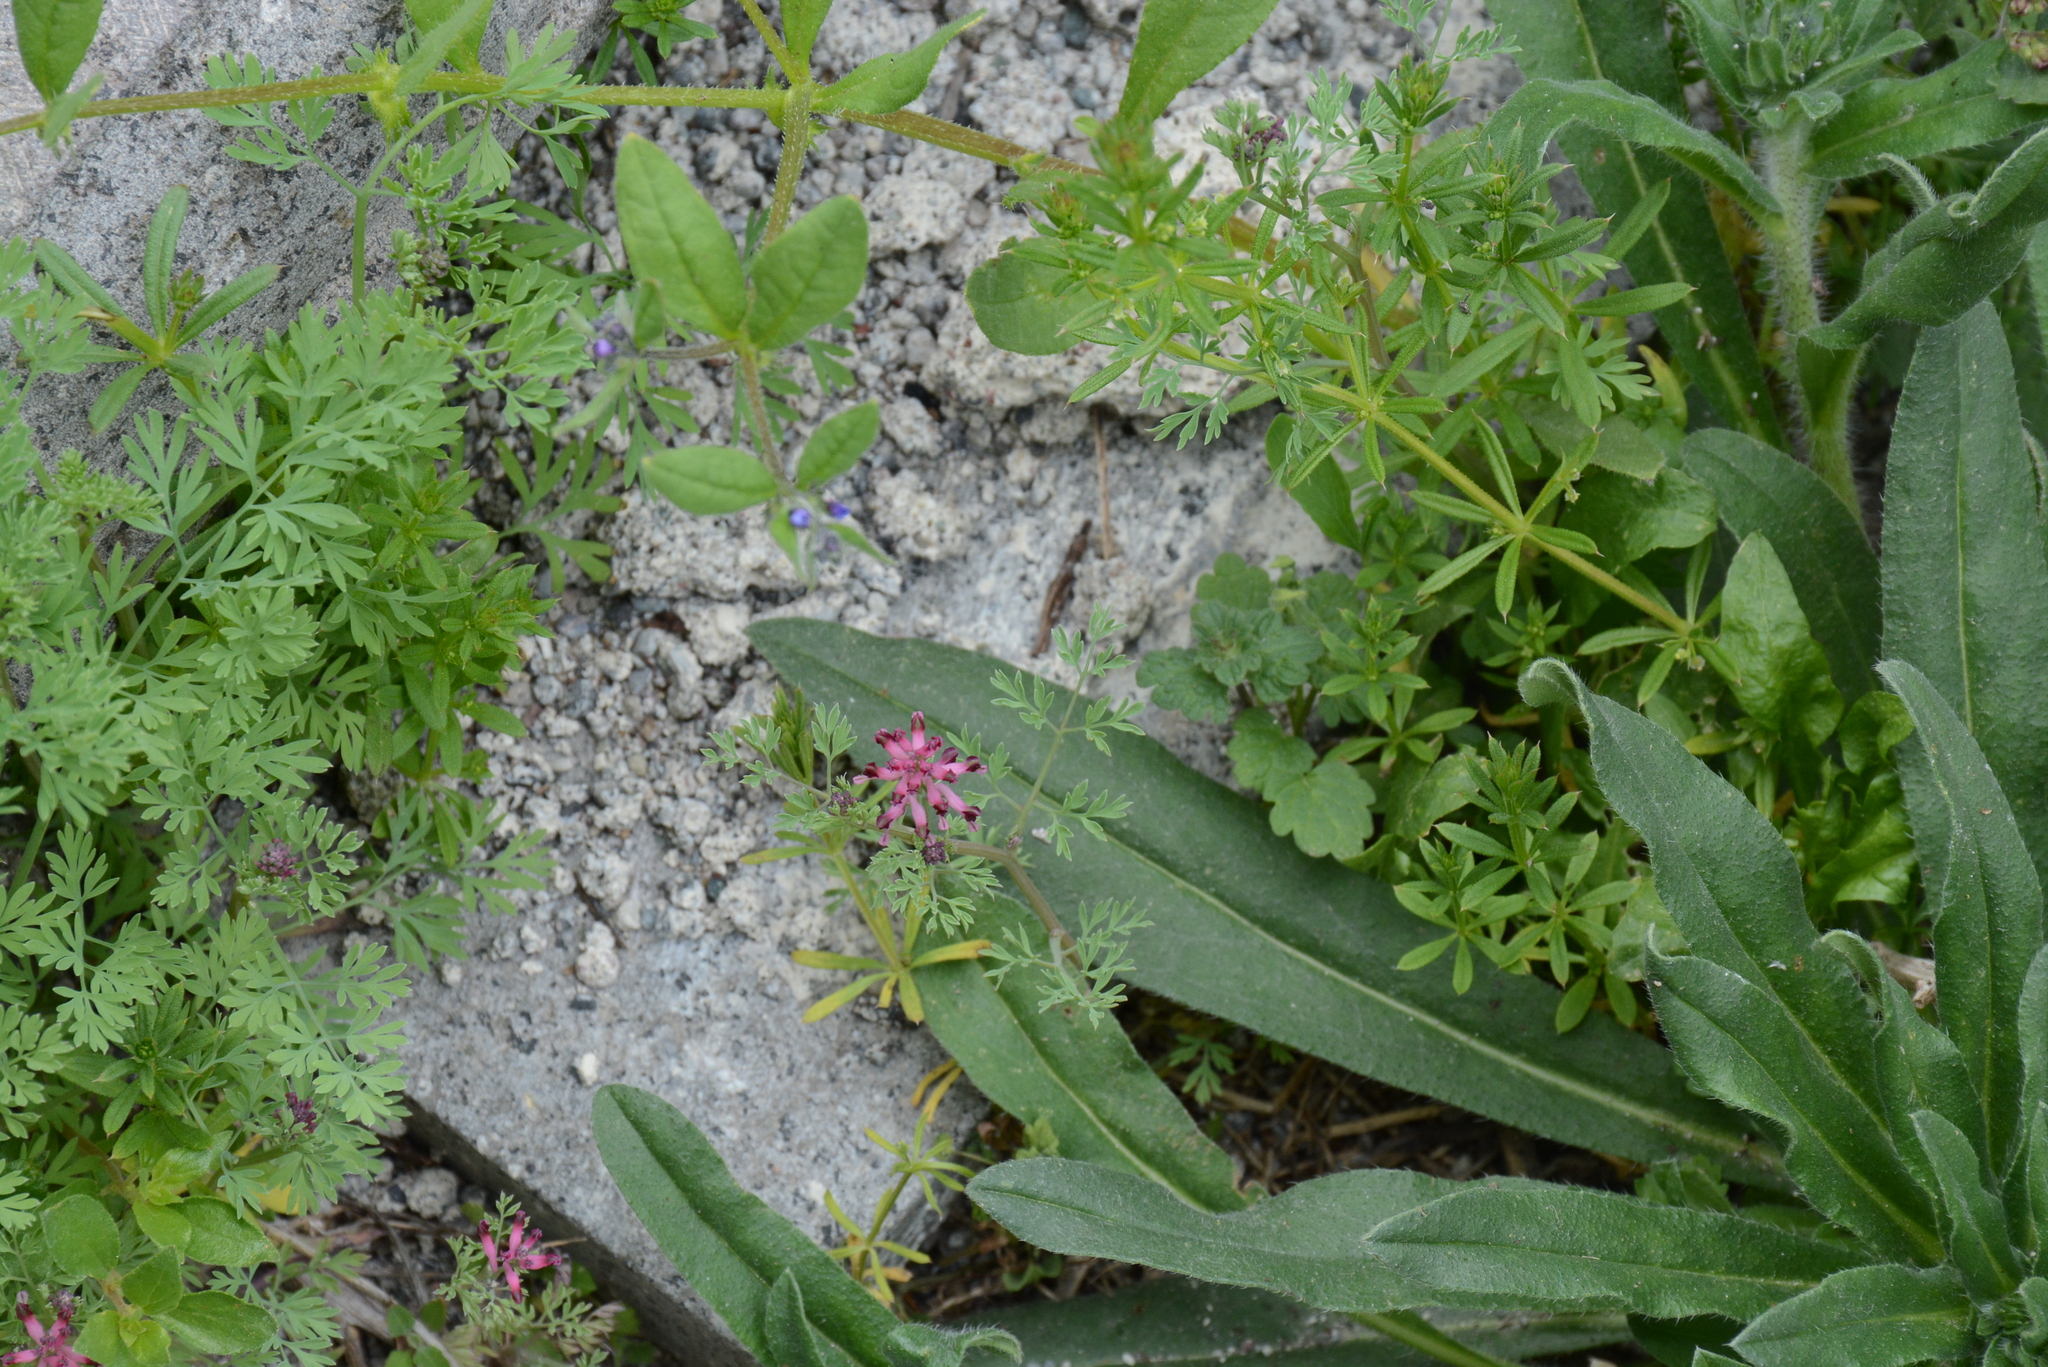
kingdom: Plantae
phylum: Tracheophyta
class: Magnoliopsida
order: Ranunculales
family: Papaveraceae
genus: Fumaria
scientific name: Fumaria officinalis
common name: Common fumitory
